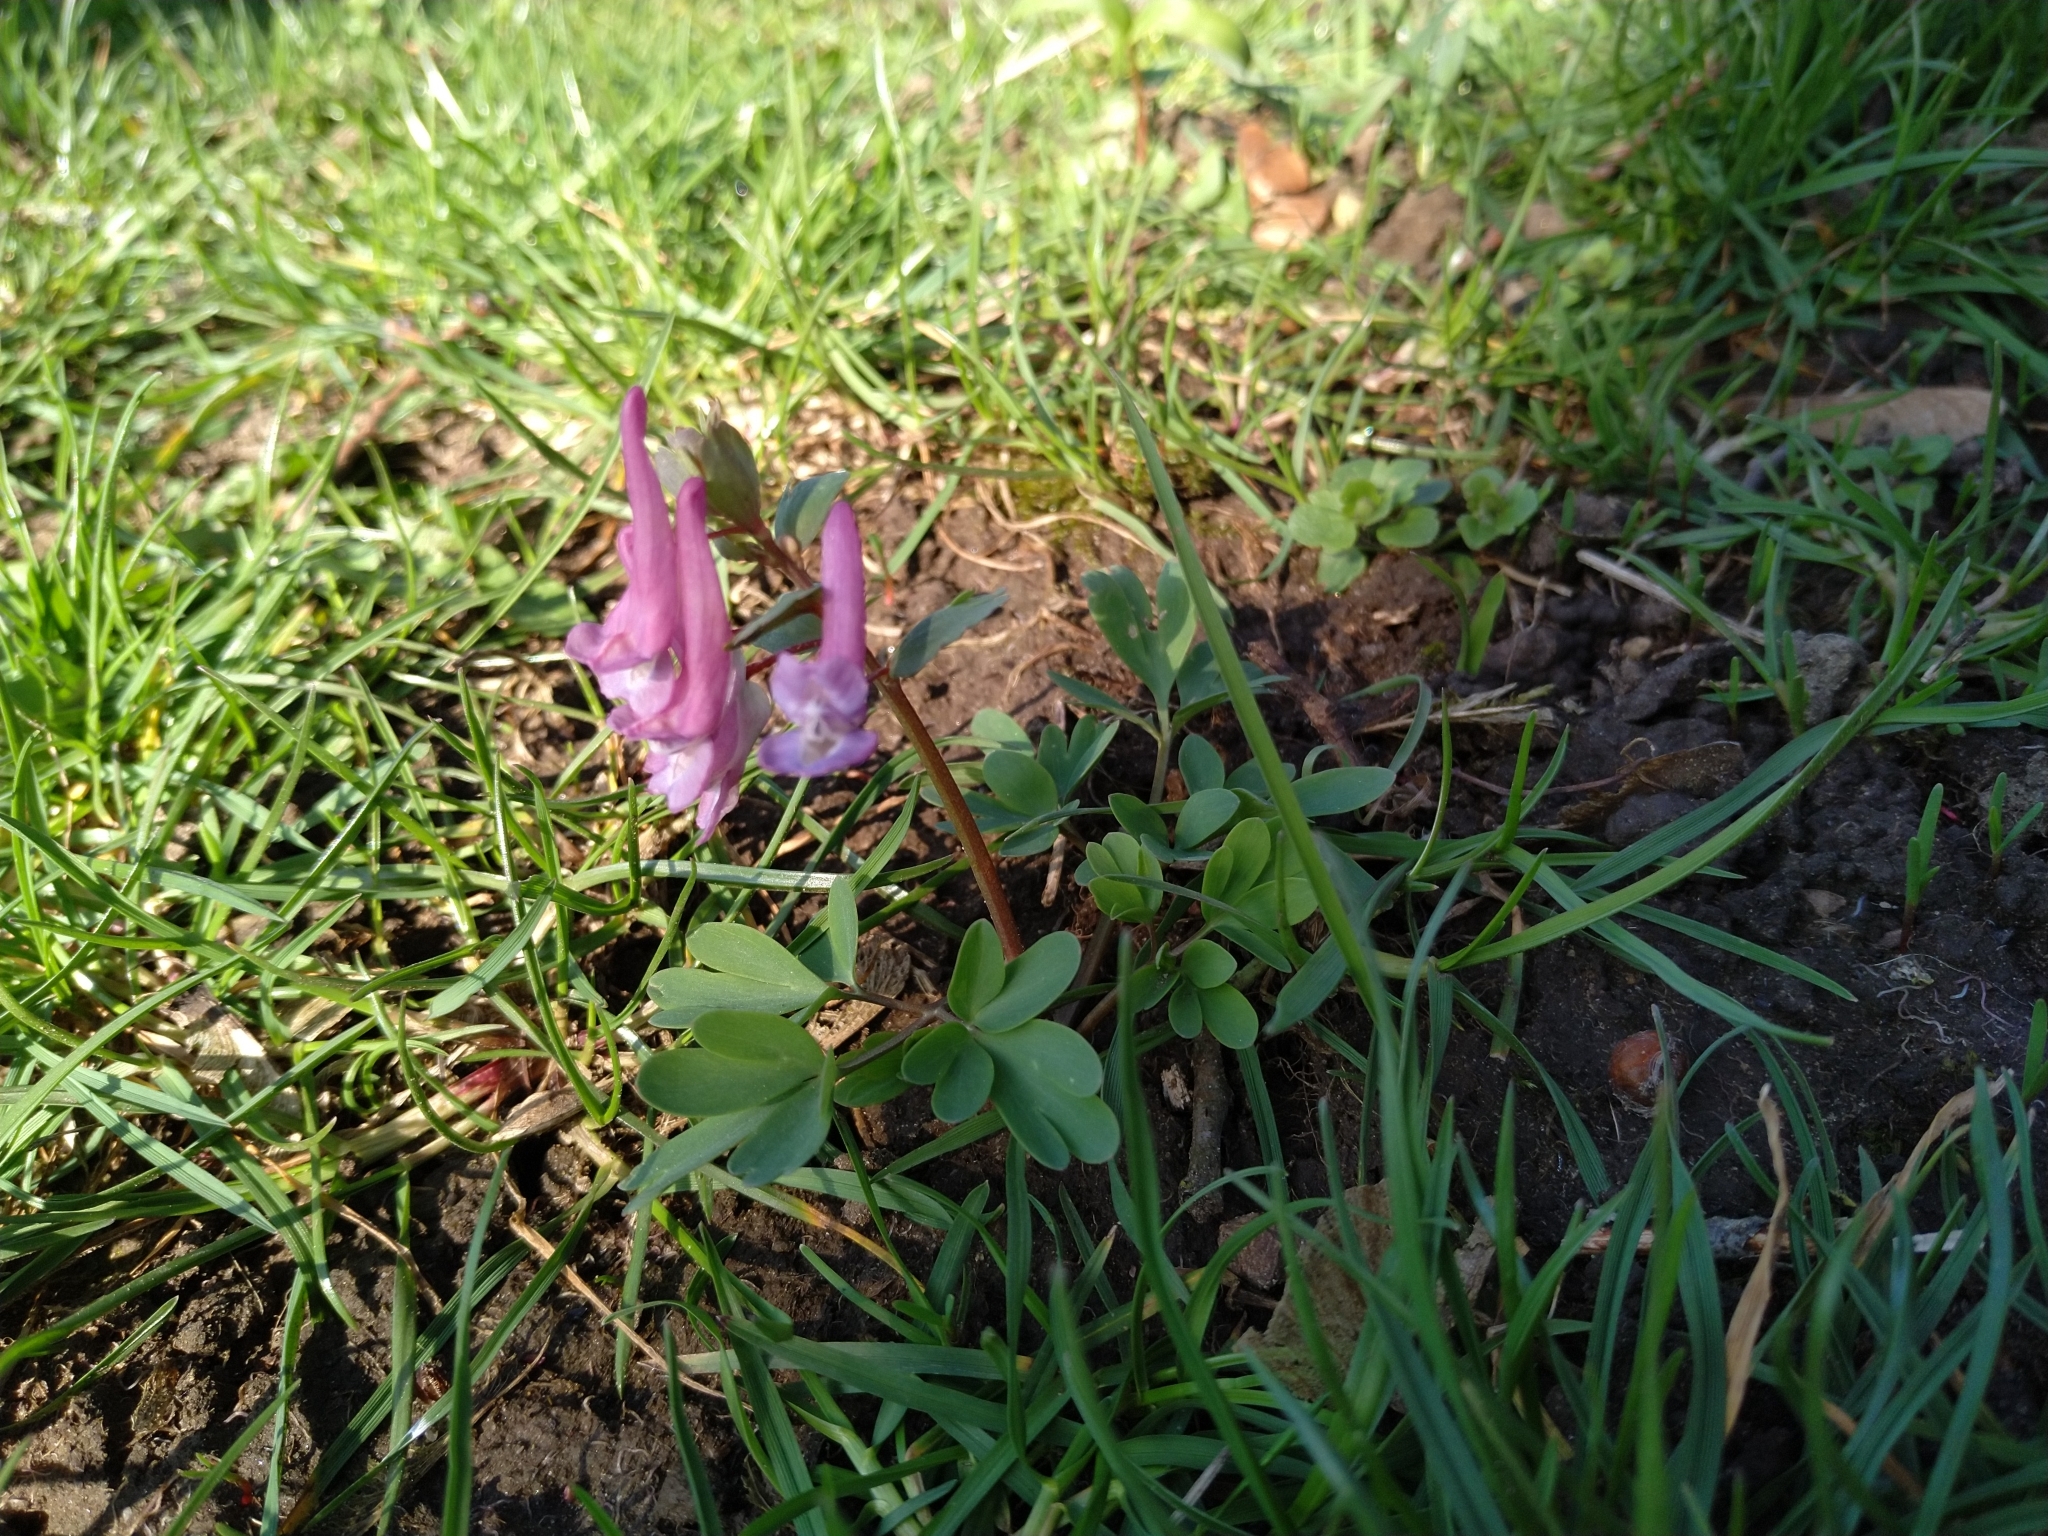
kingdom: Plantae
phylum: Tracheophyta
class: Magnoliopsida
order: Ranunculales
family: Papaveraceae
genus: Corydalis
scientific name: Corydalis solida
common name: Bird-in-a-bush
